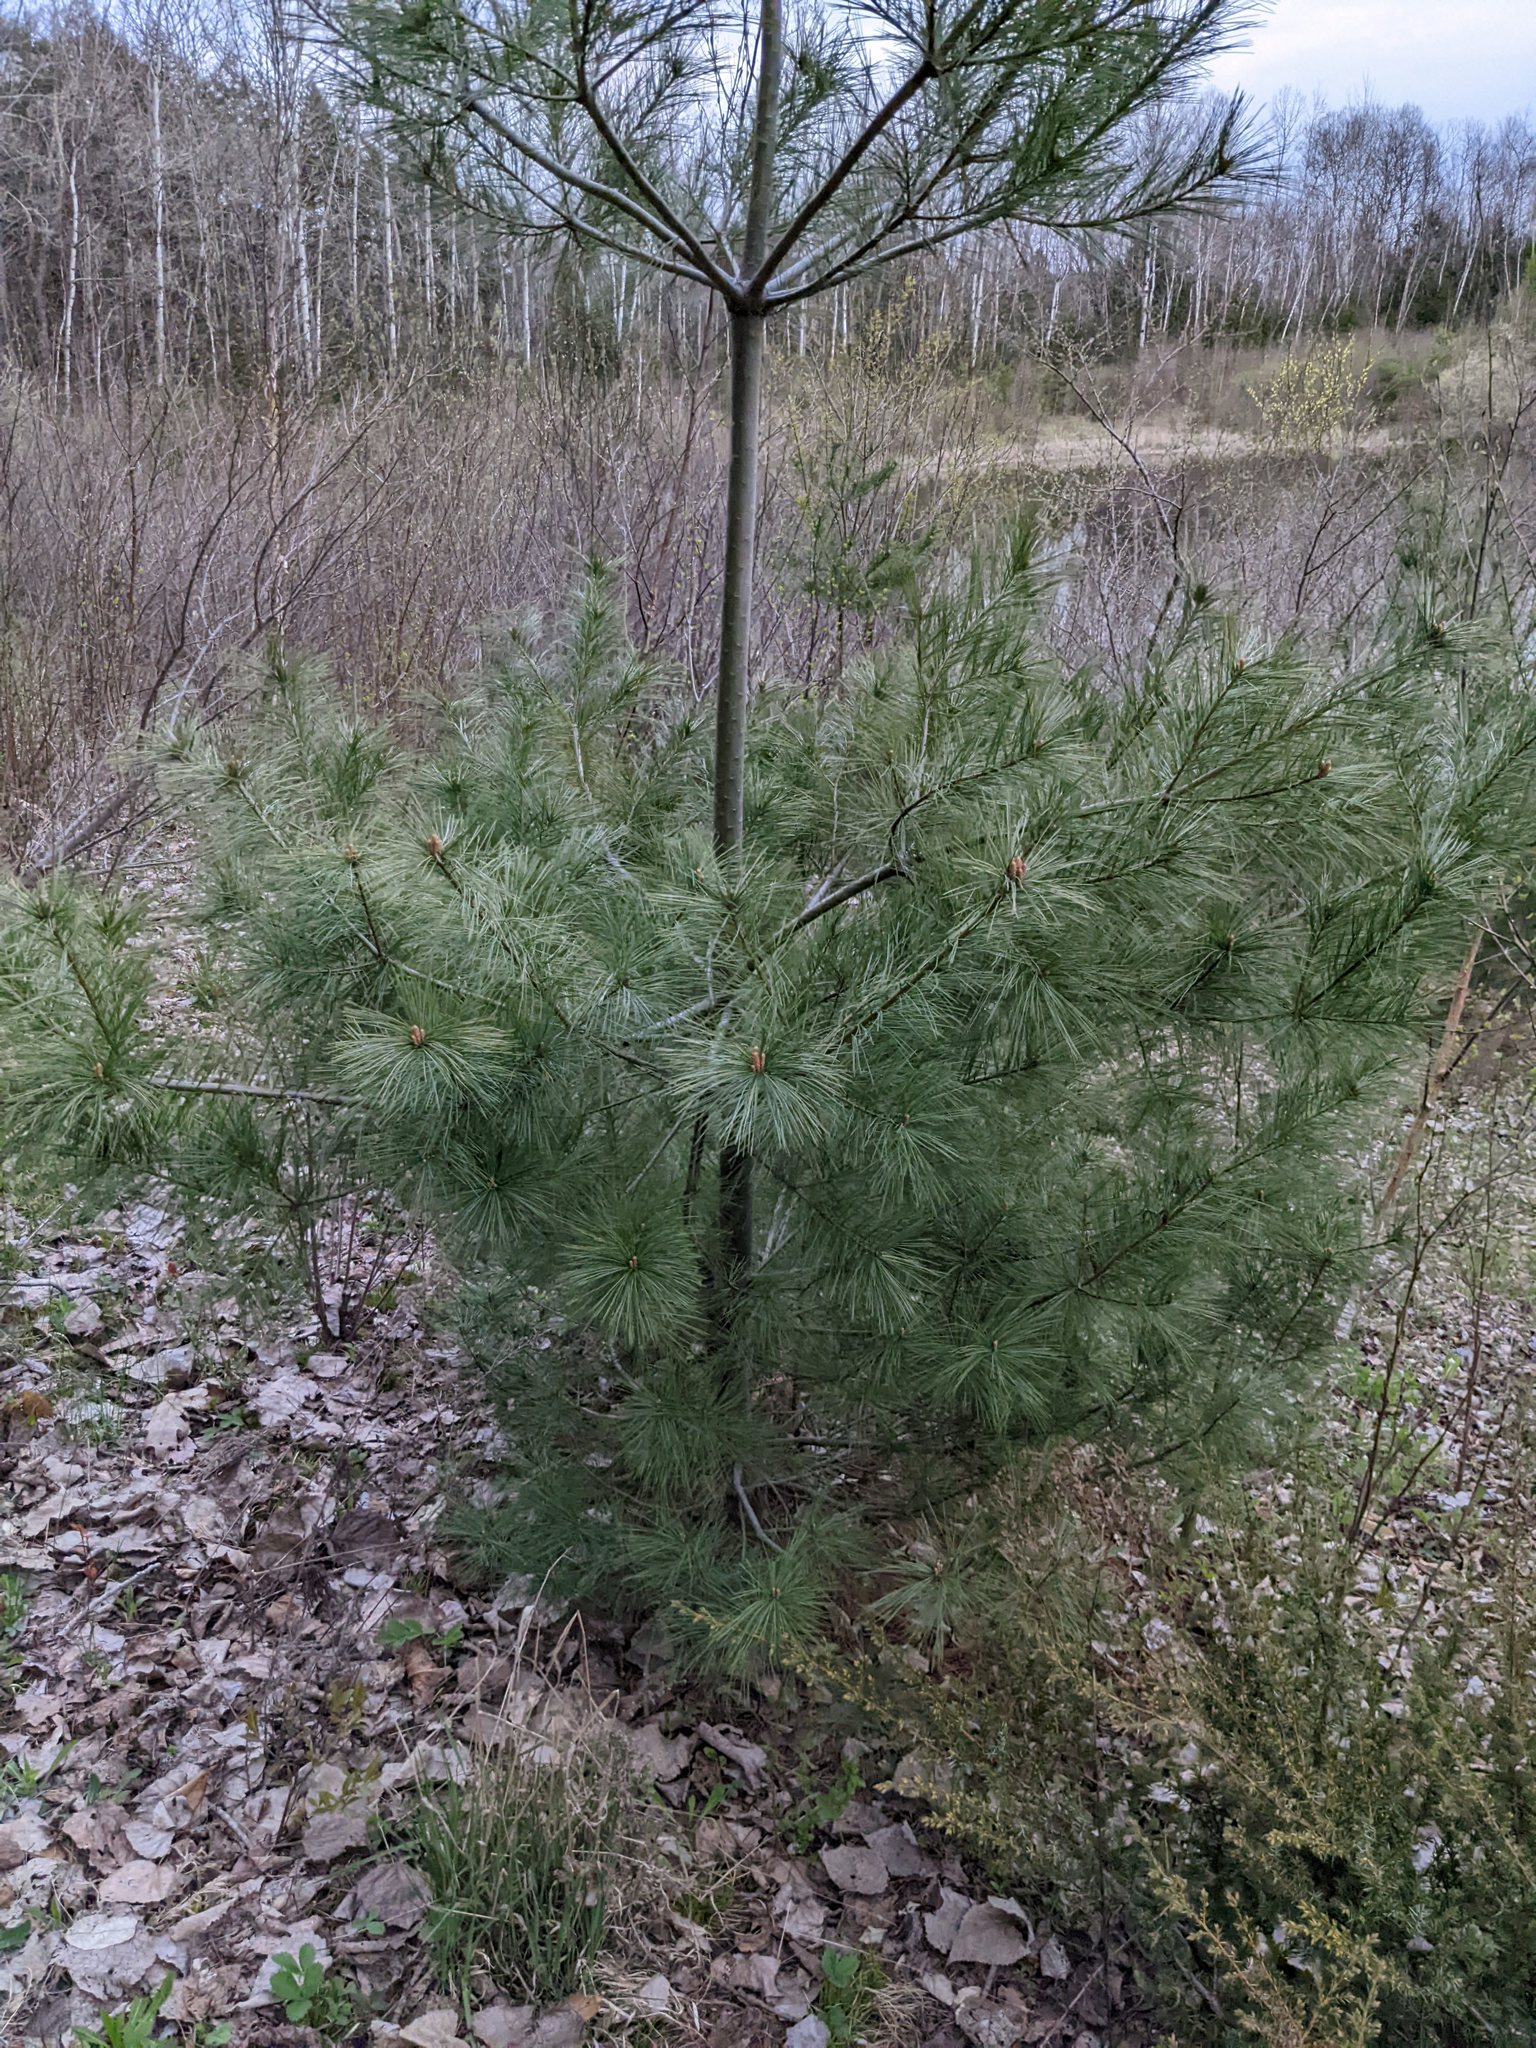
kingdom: Plantae
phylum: Tracheophyta
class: Pinopsida
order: Pinales
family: Pinaceae
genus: Pinus
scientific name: Pinus strobus
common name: Weymouth pine
